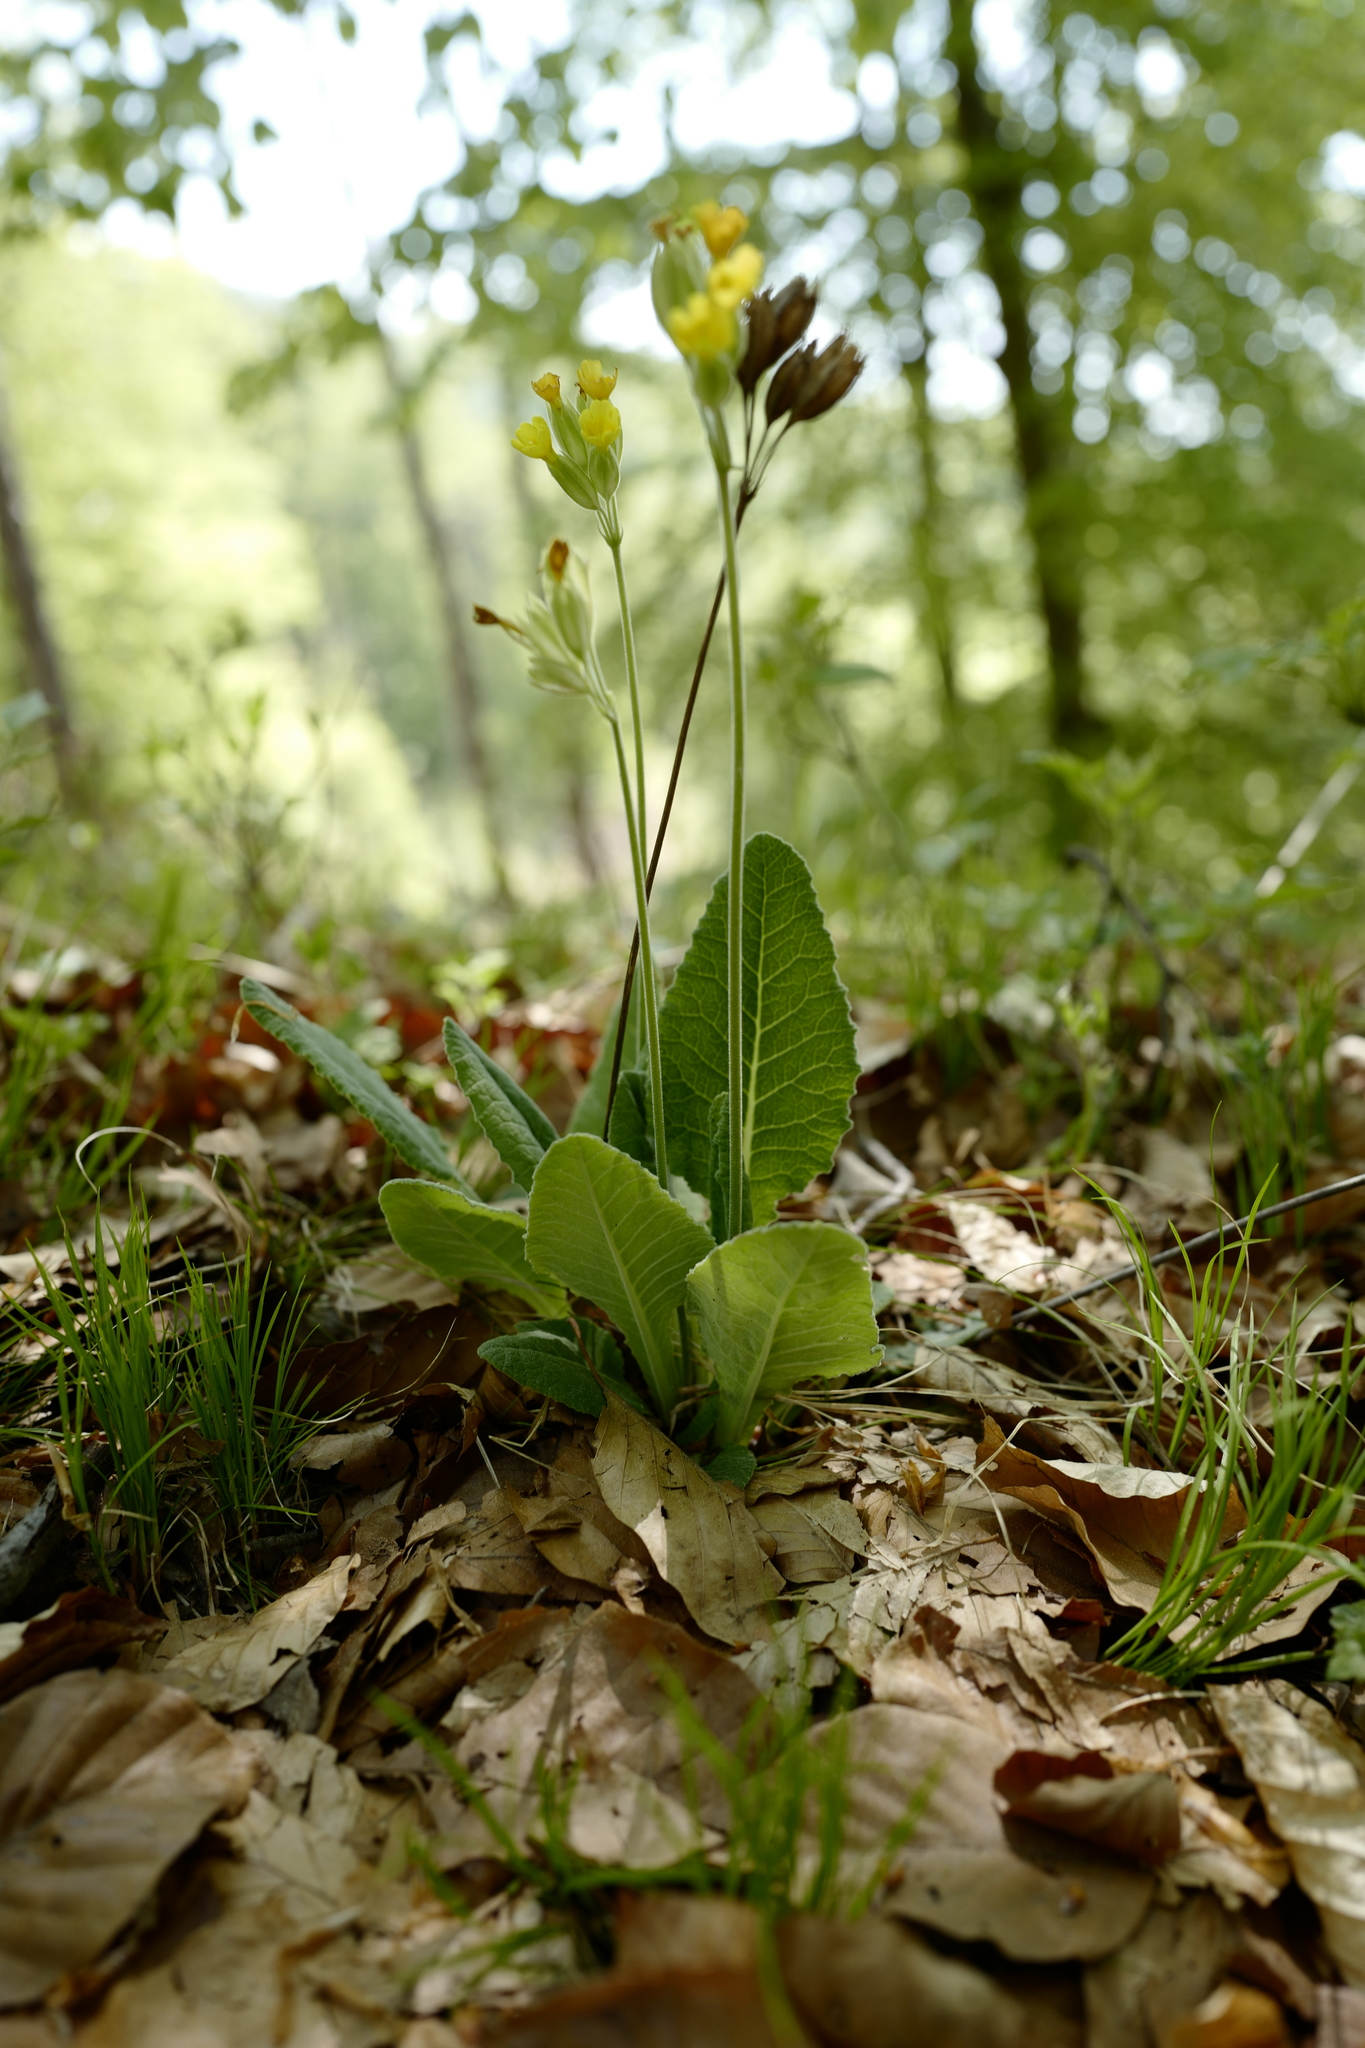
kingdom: Plantae
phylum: Tracheophyta
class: Magnoliopsida
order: Ericales
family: Primulaceae
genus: Primula
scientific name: Primula veris
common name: Cowslip
